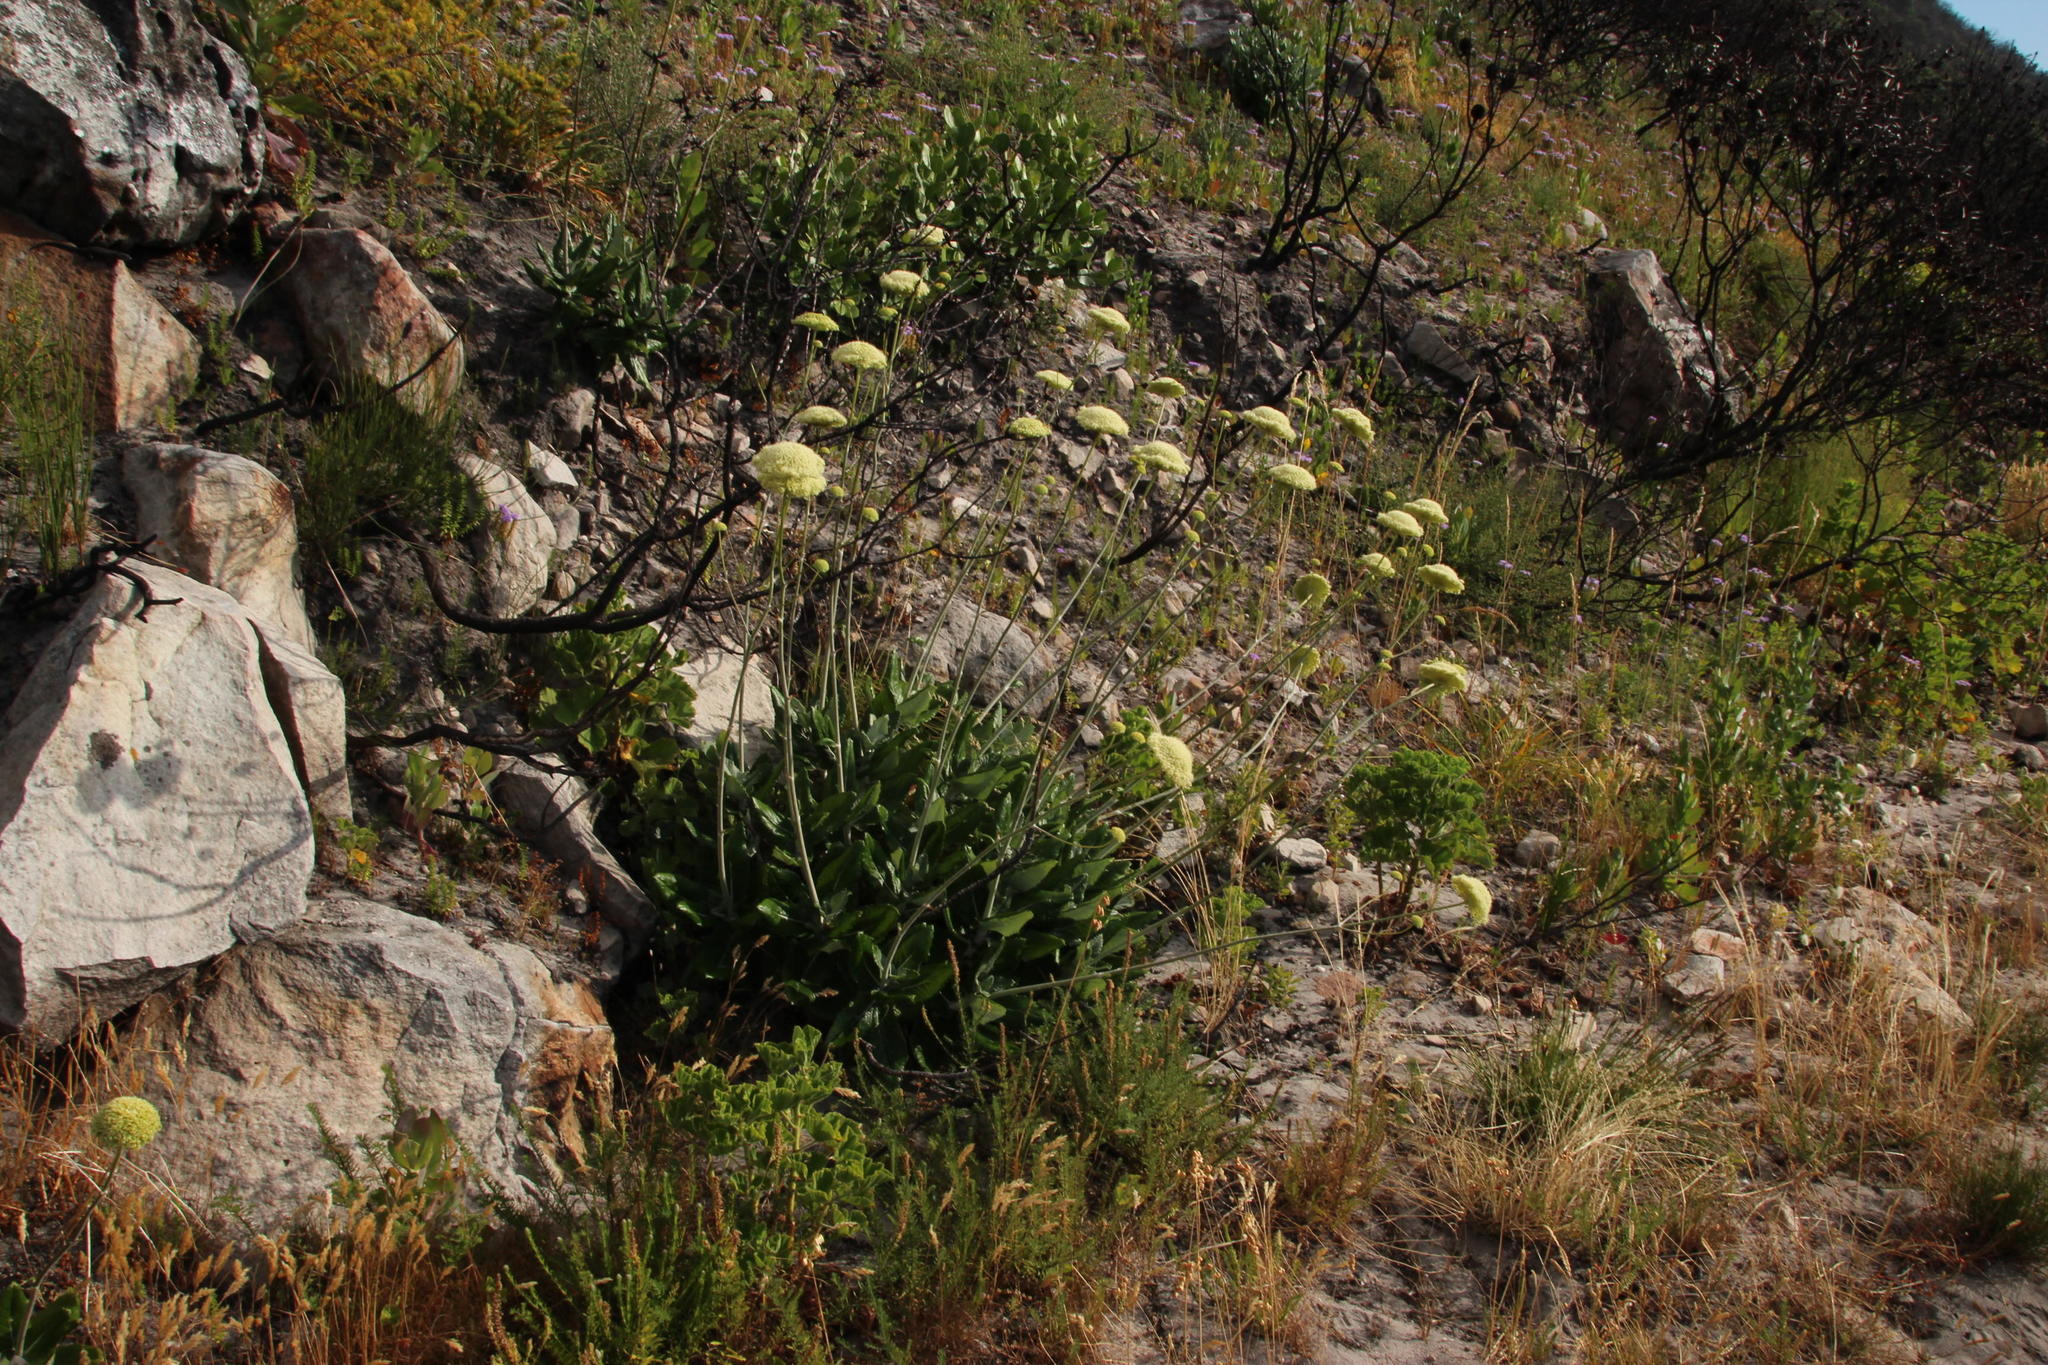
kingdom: Plantae
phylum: Tracheophyta
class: Magnoliopsida
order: Apiales
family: Apiaceae
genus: Hermas
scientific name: Hermas villosa
